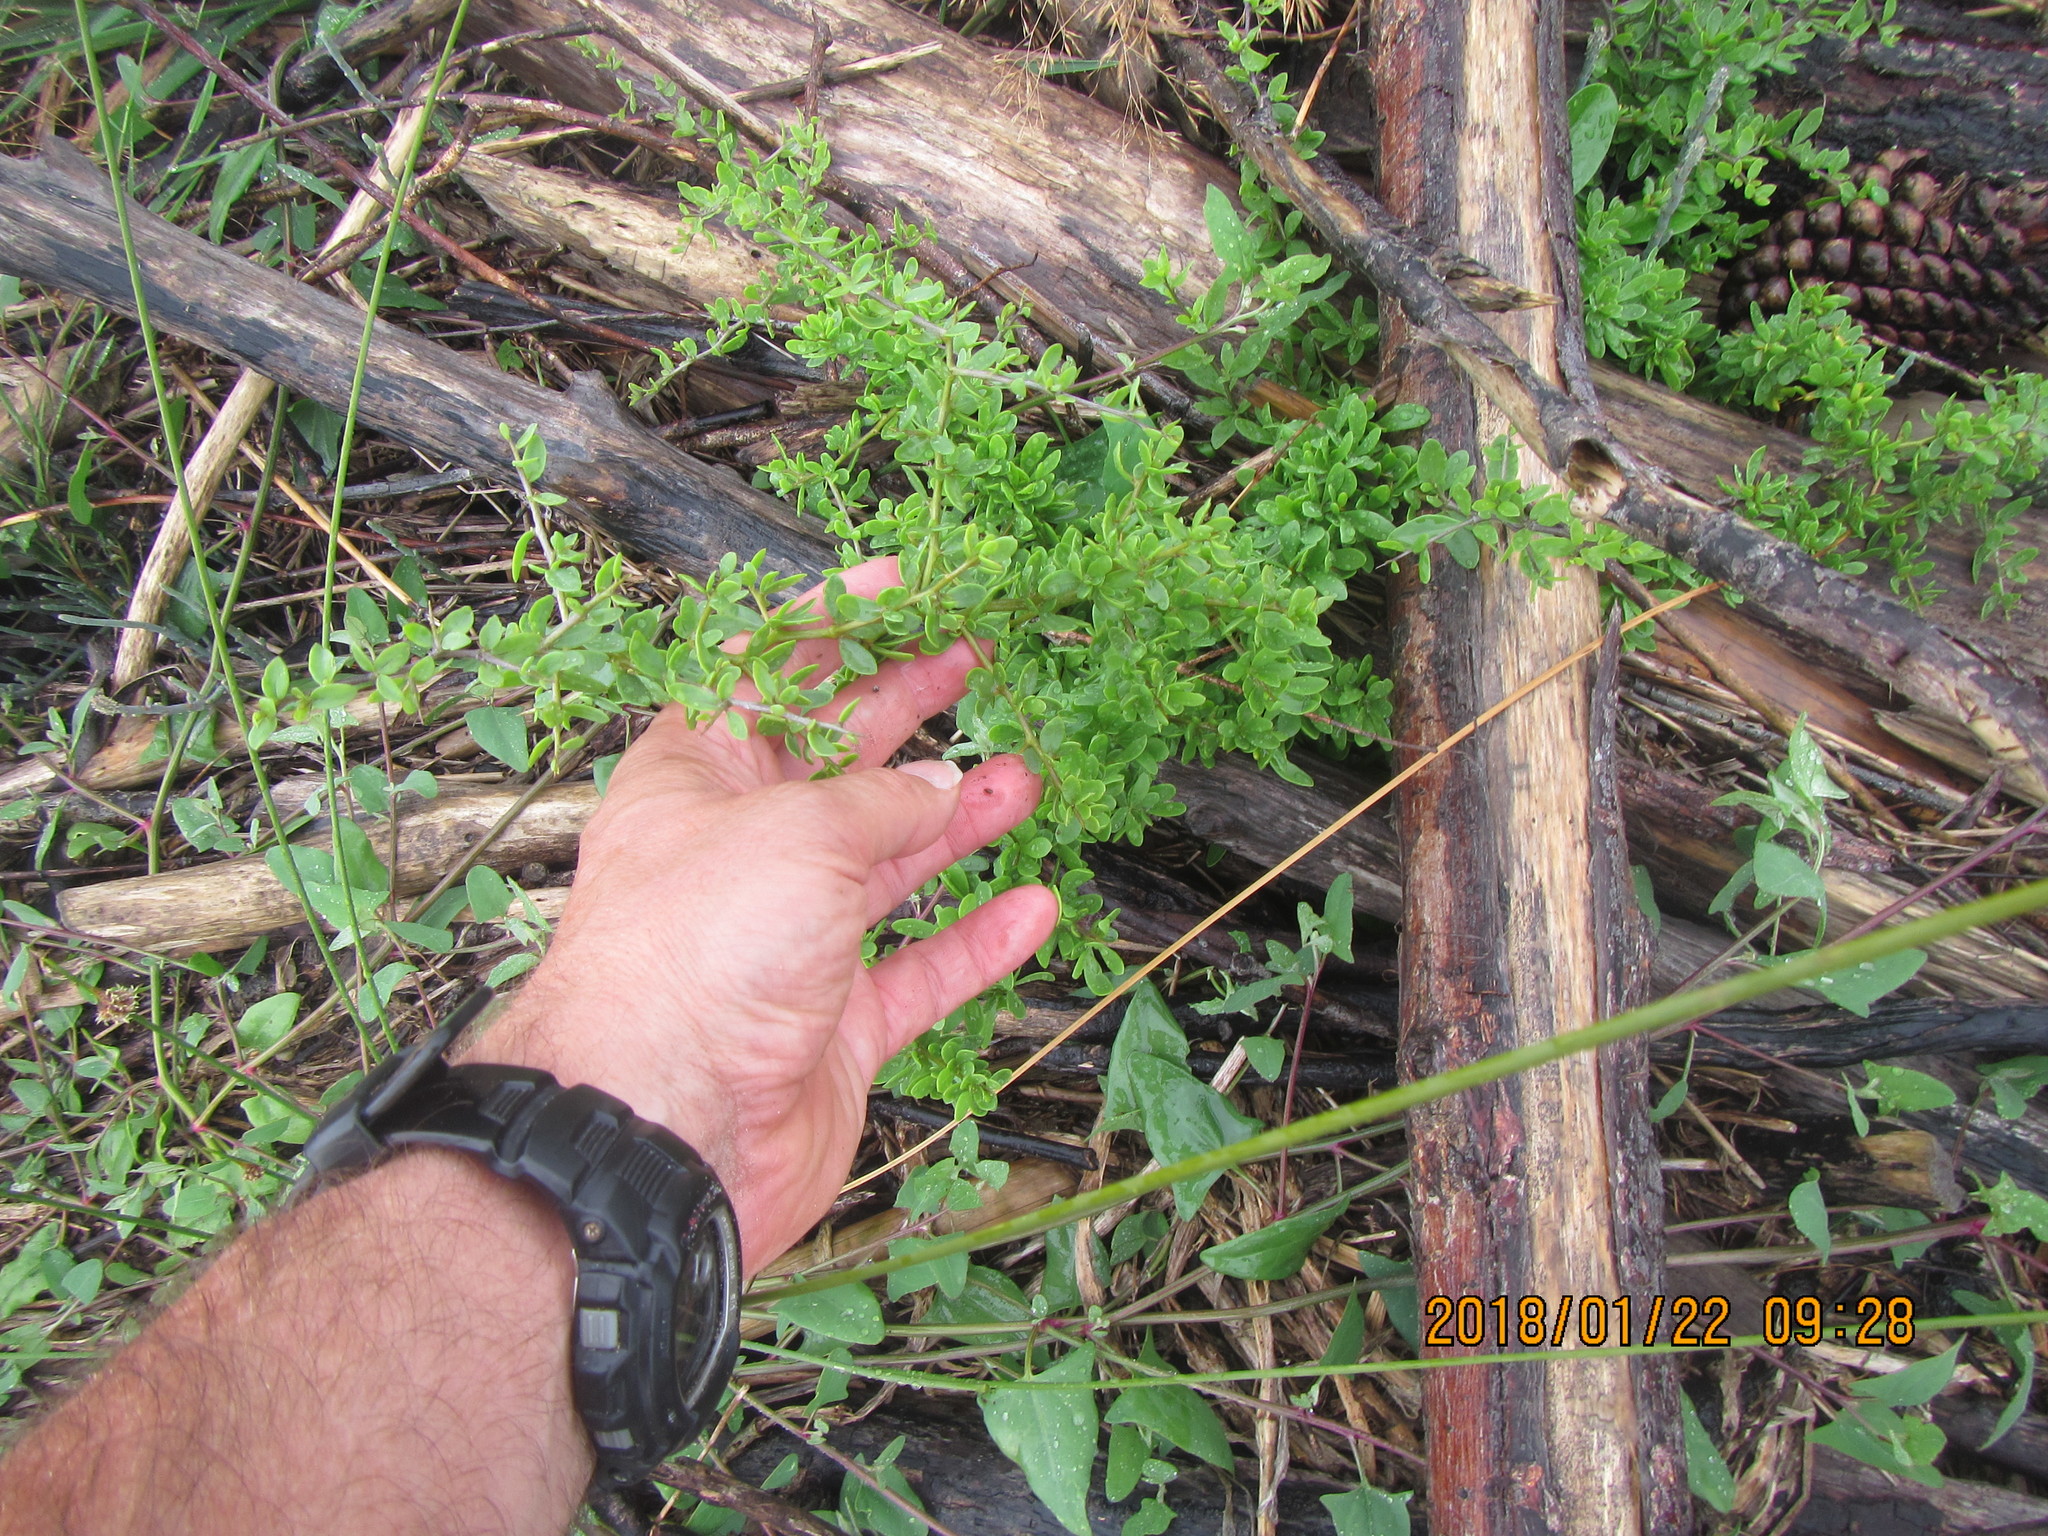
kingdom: Plantae
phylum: Tracheophyta
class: Magnoliopsida
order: Solanales
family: Solanaceae
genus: Lycium
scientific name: Lycium ferocissimum
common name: African boxthorn
